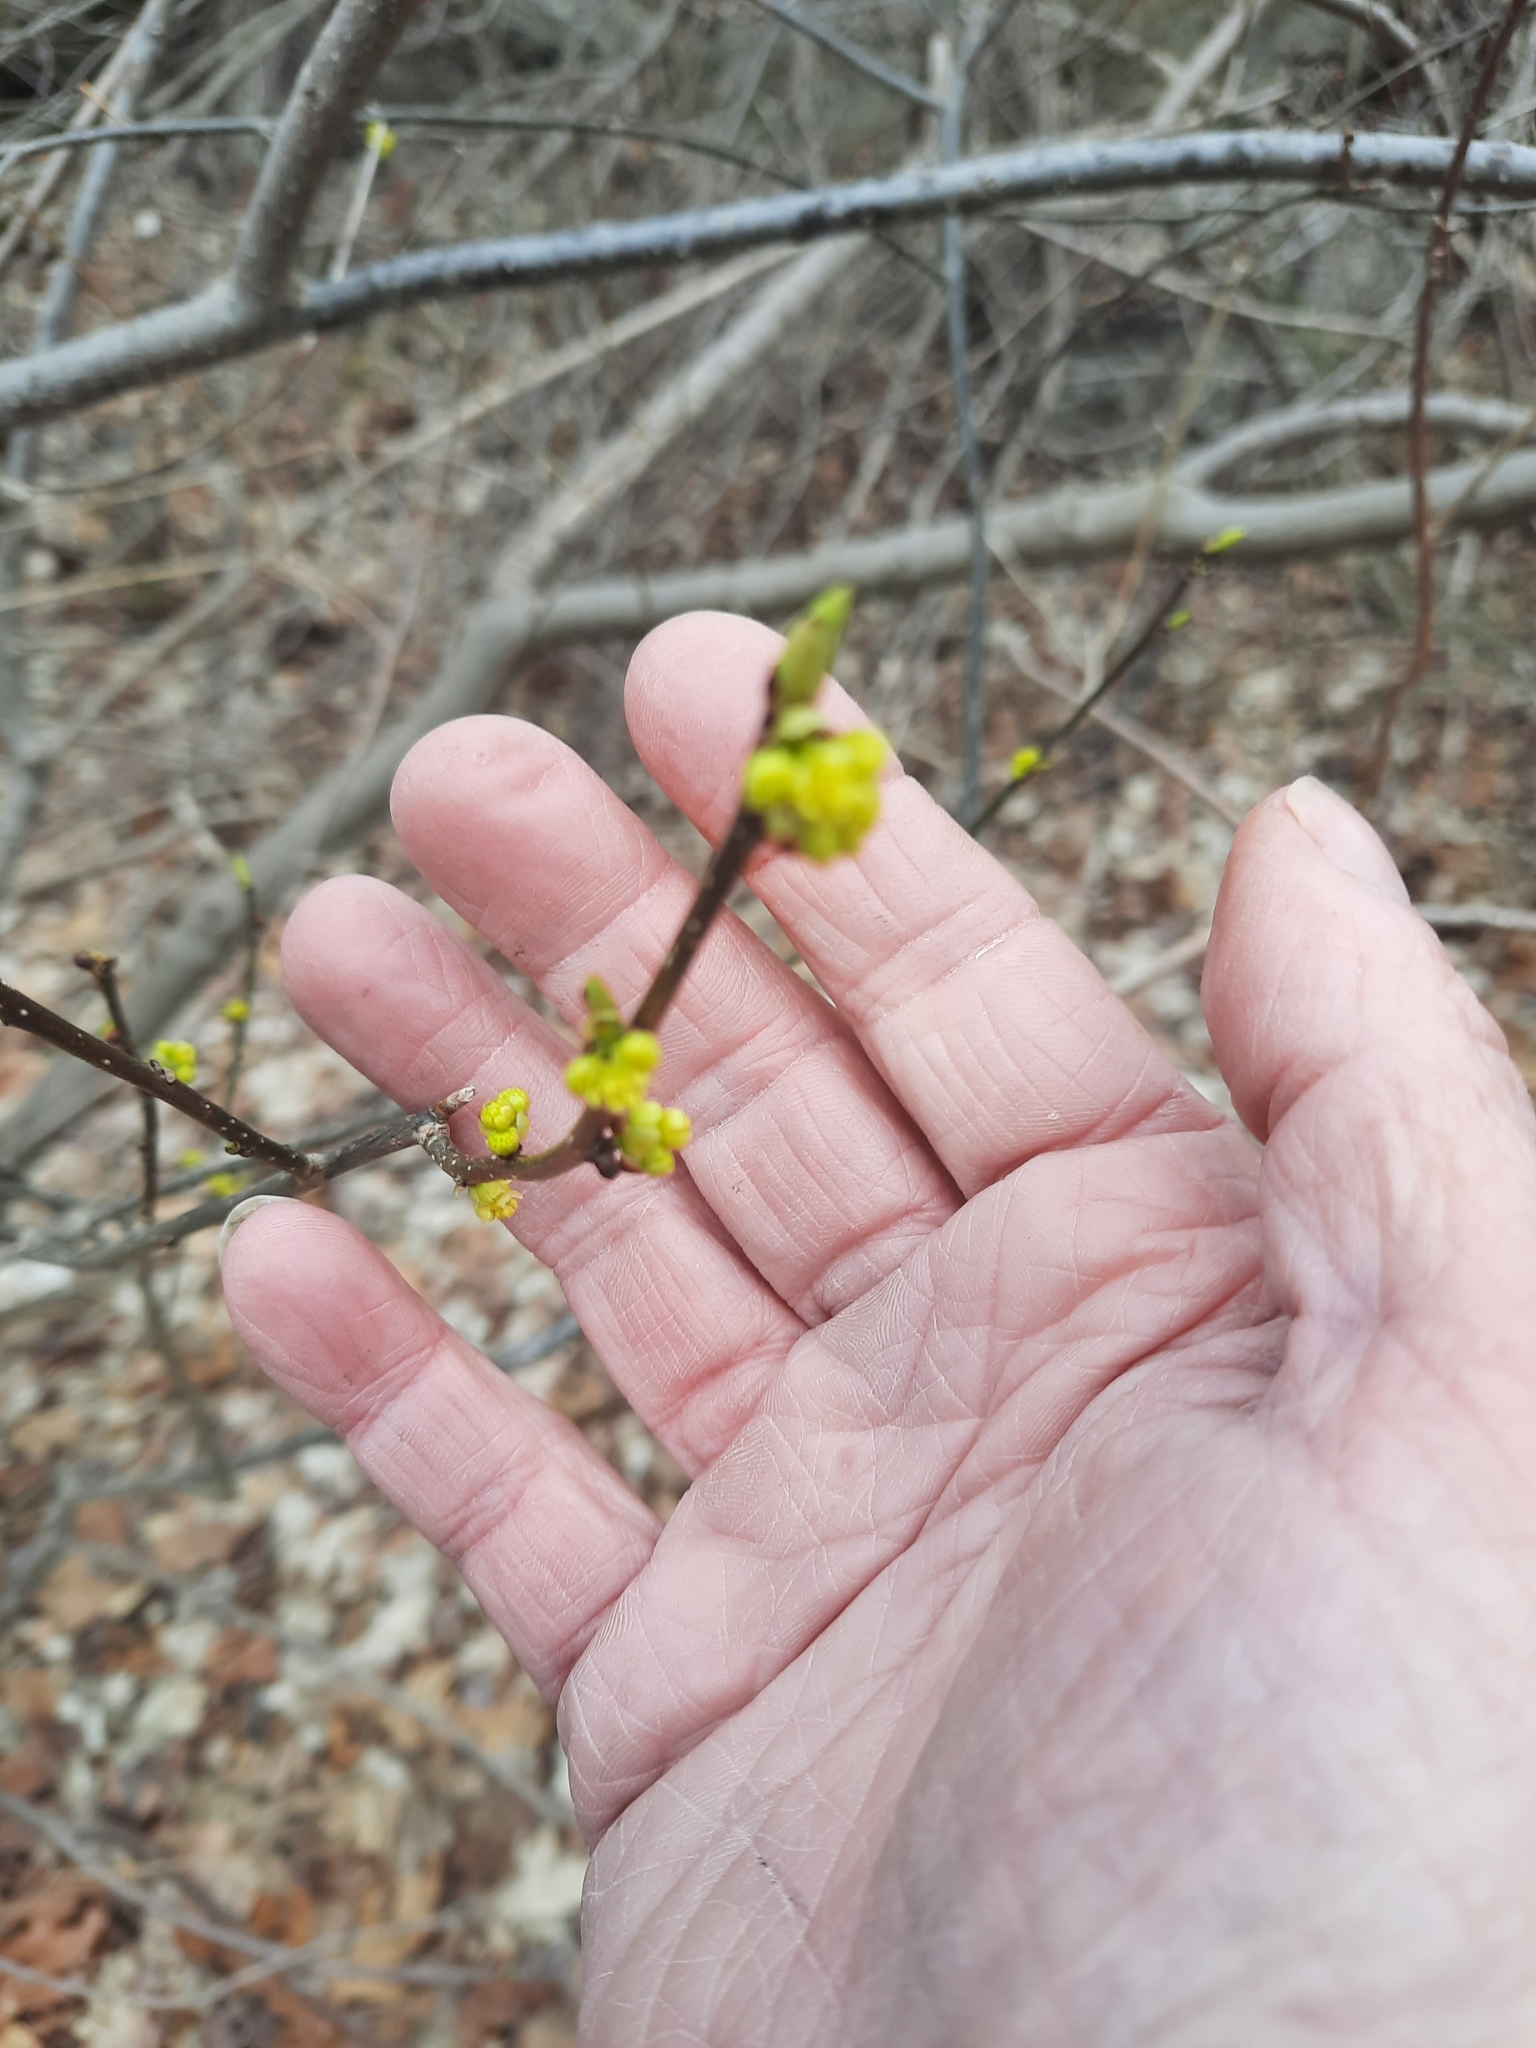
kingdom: Plantae
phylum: Tracheophyta
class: Magnoliopsida
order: Laurales
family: Lauraceae
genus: Lindera
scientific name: Lindera benzoin
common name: Spicebush
